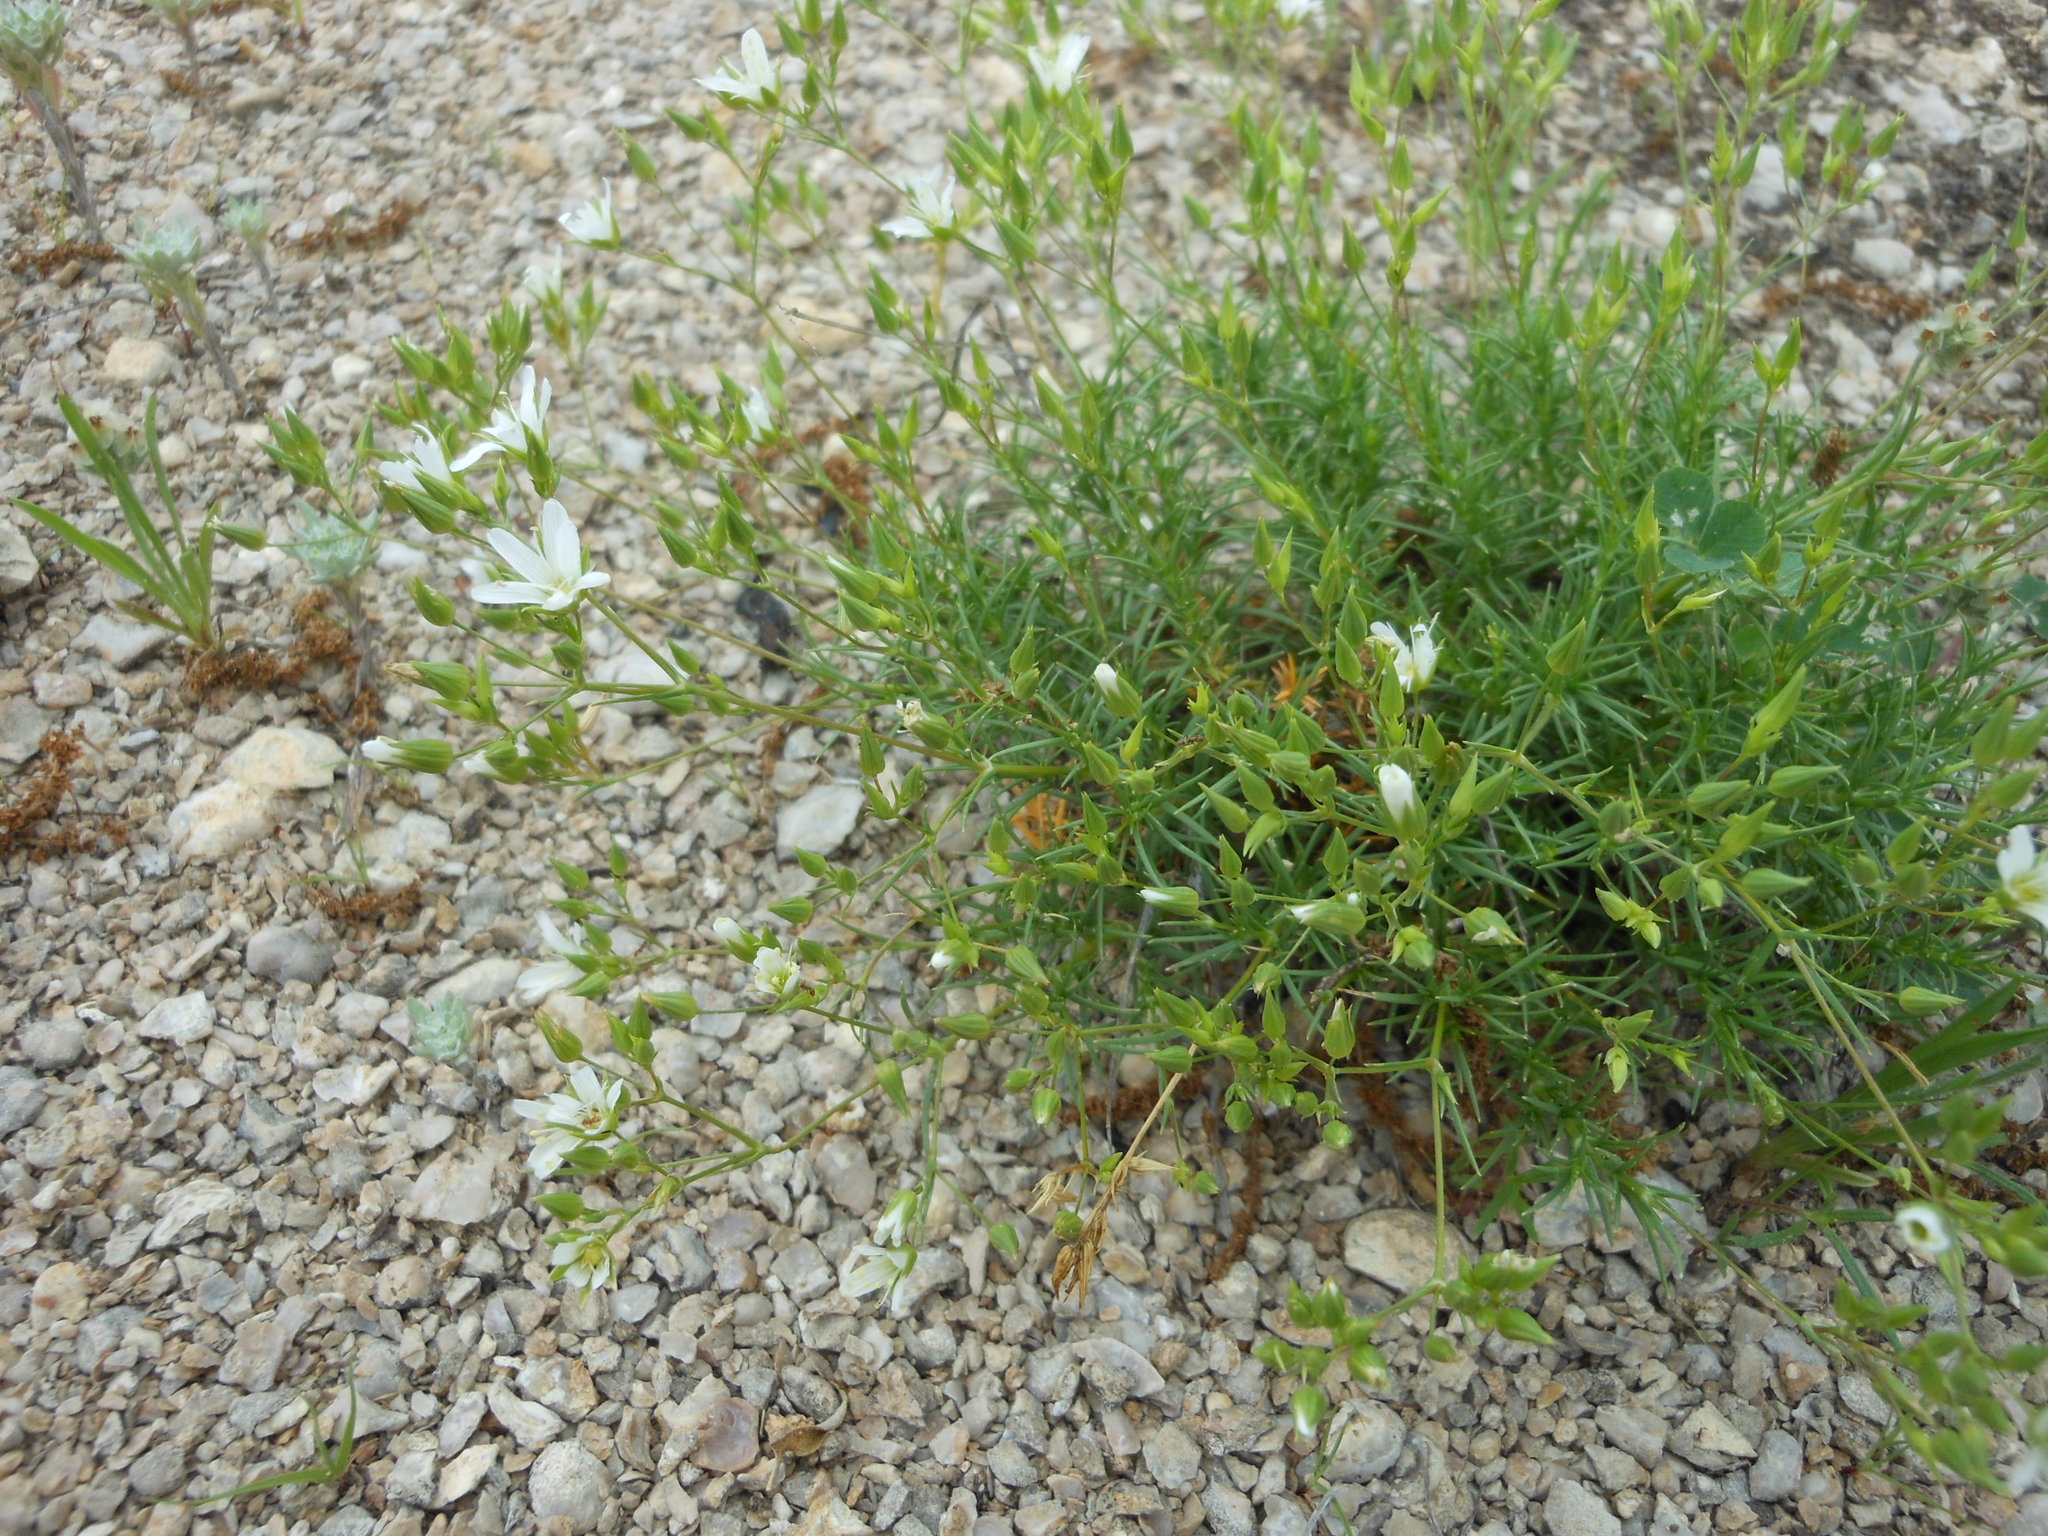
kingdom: Plantae
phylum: Tracheophyta
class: Magnoliopsida
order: Caryophyllales
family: Caryophyllaceae
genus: Sabulina
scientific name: Sabulina michauxii
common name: Michaux's stitchwort
